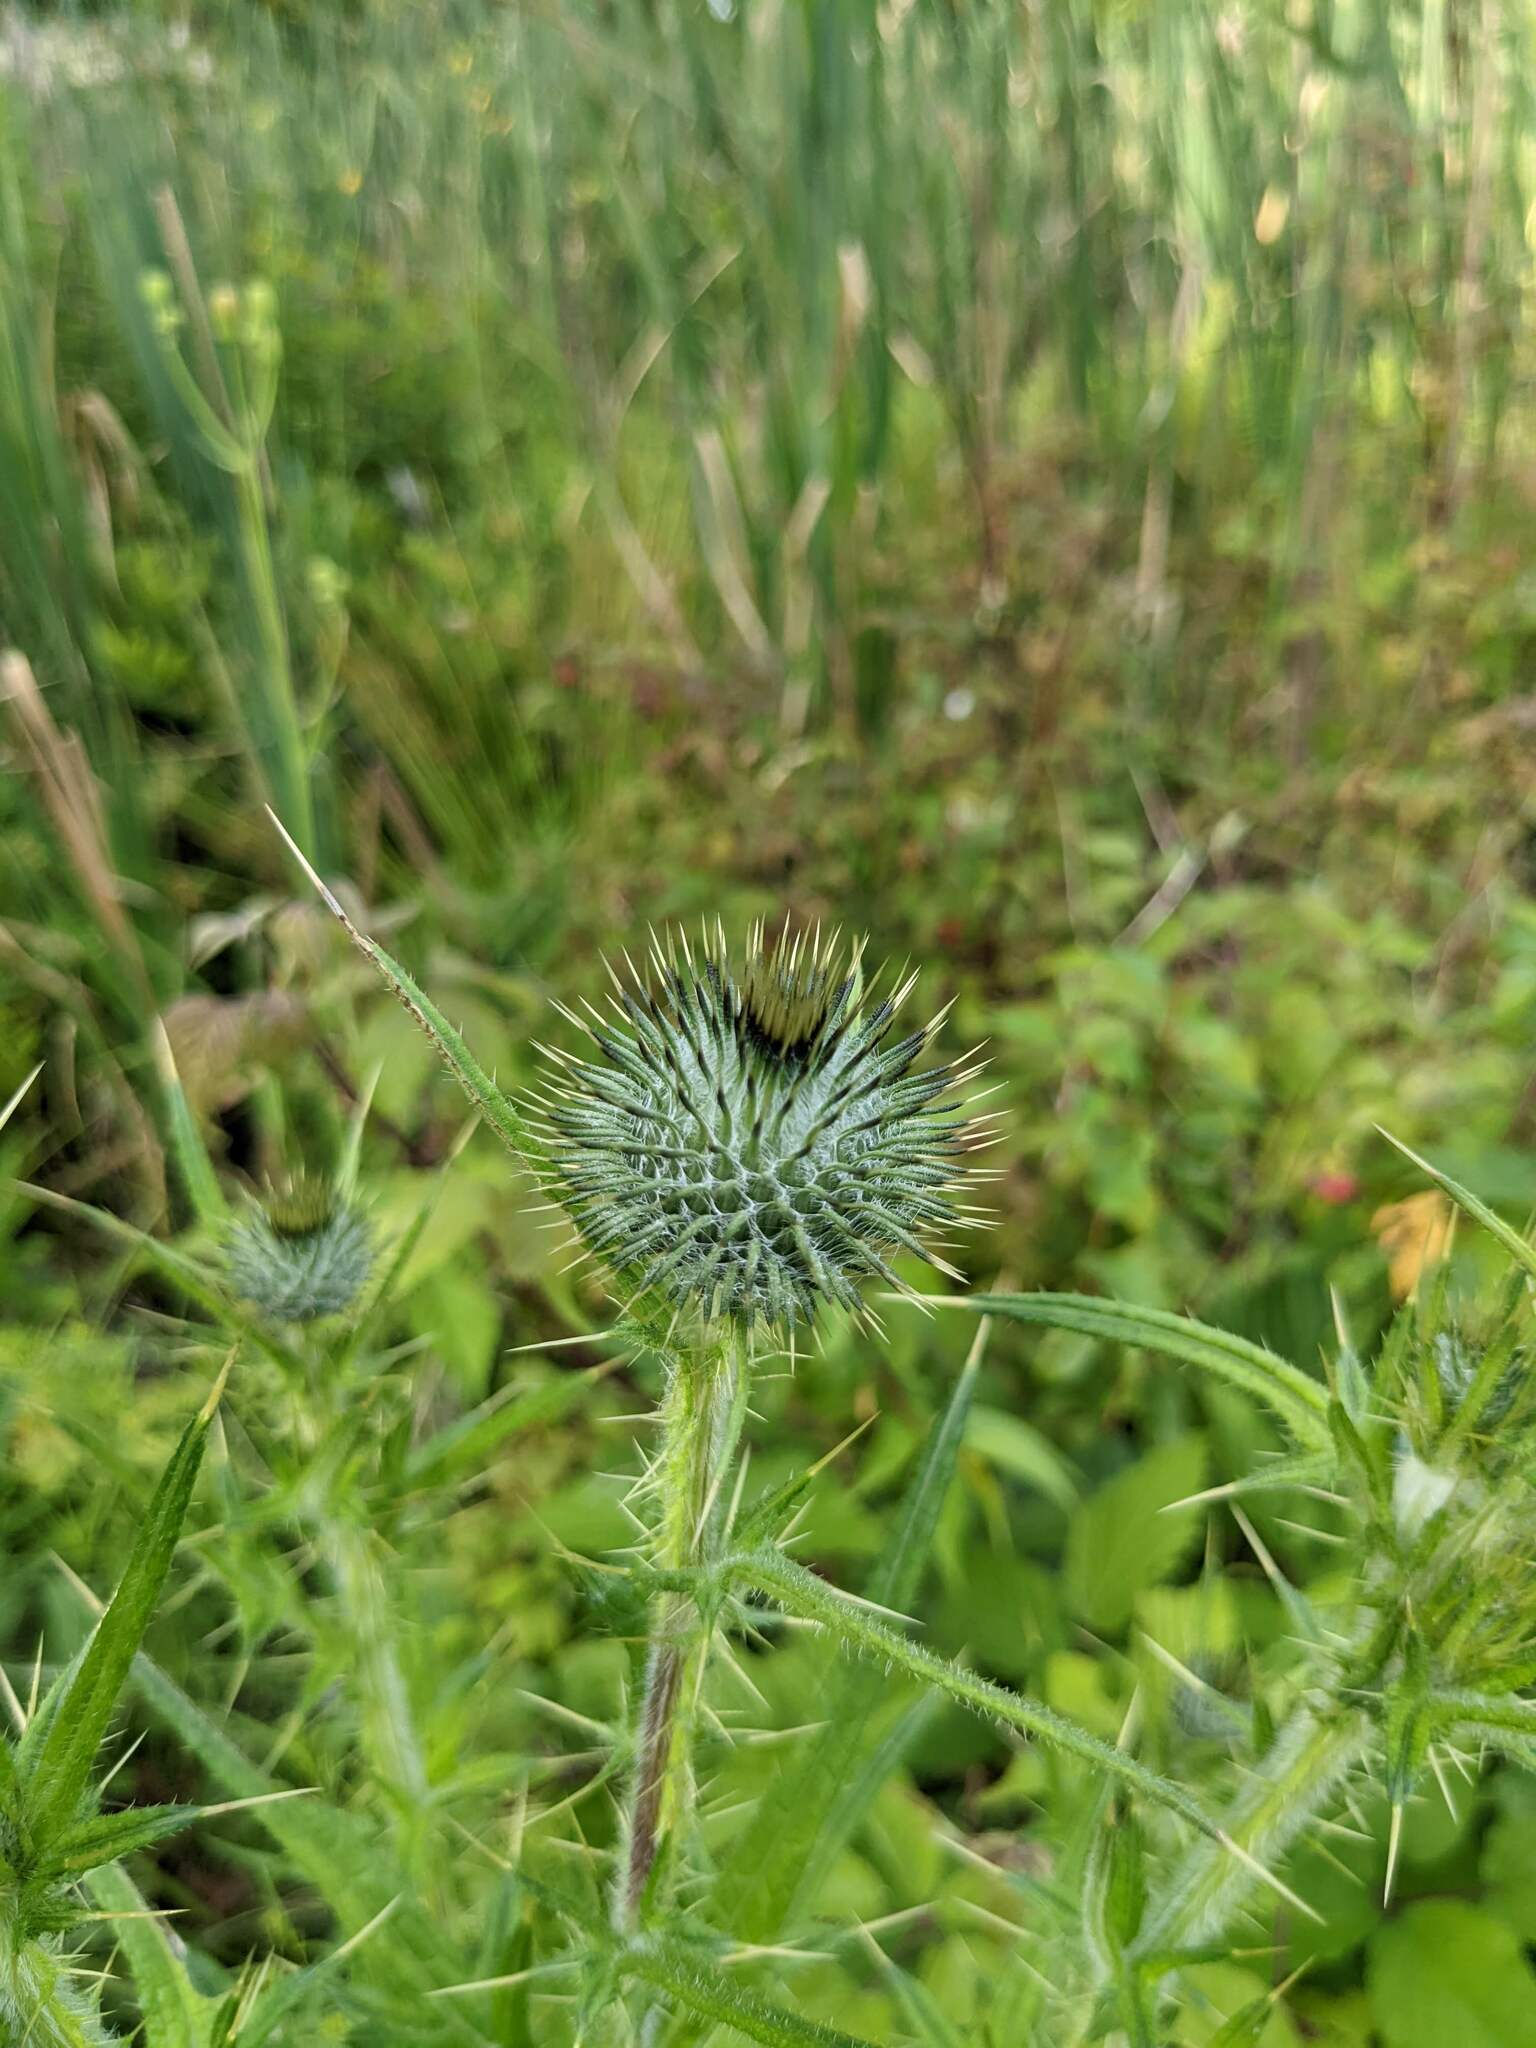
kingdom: Plantae
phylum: Tracheophyta
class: Magnoliopsida
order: Asterales
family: Asteraceae
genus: Cirsium
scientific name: Cirsium vulgare
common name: Bull thistle
